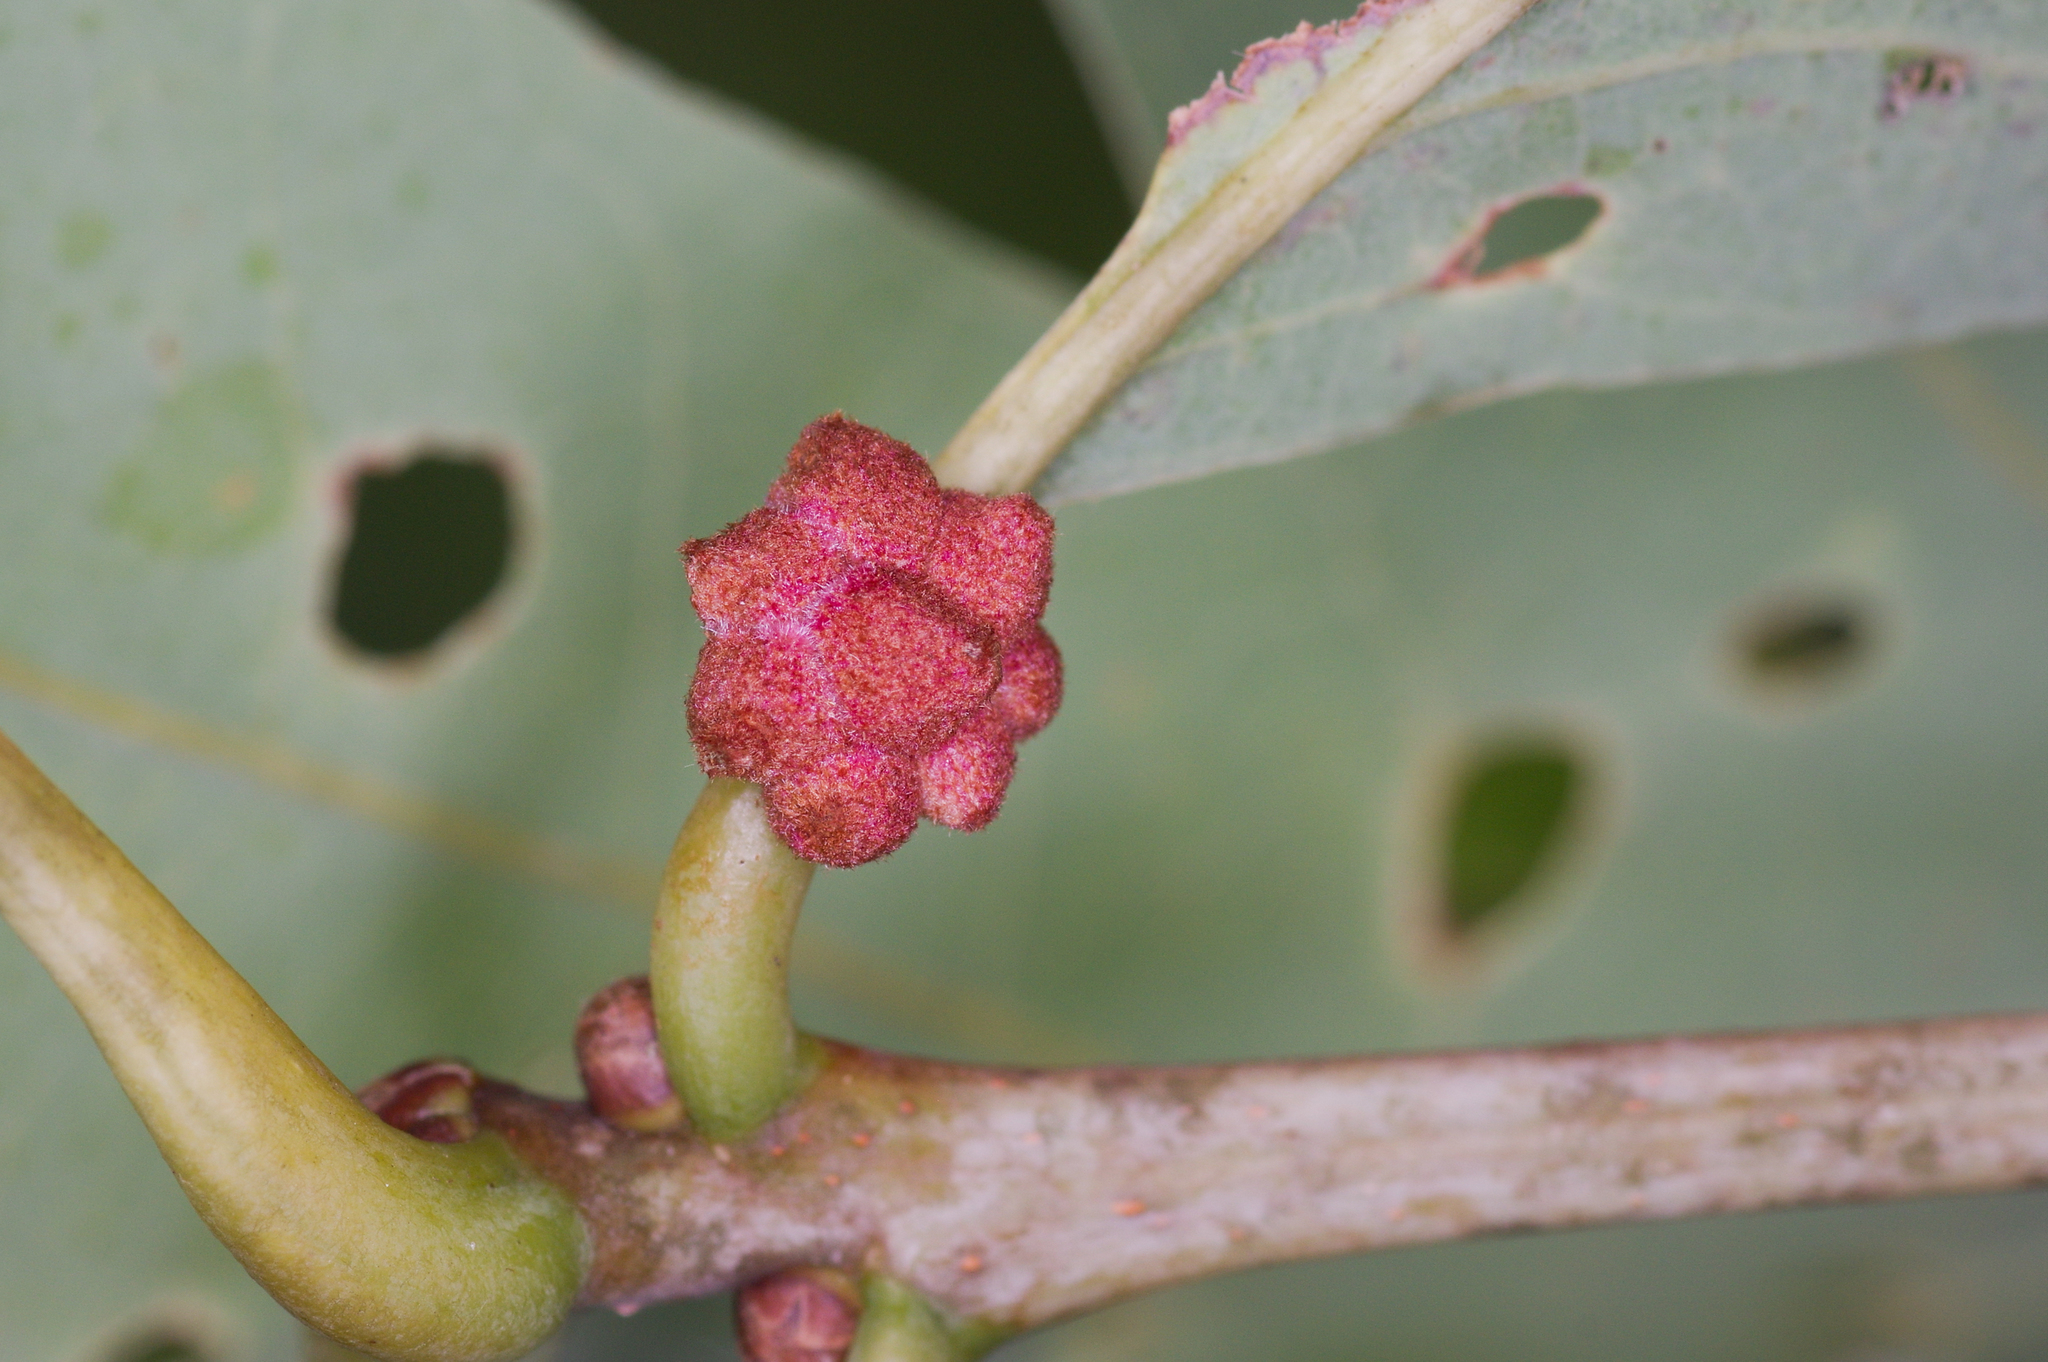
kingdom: Animalia
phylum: Arthropoda
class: Insecta
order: Hymenoptera
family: Cynipidae
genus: Andricus
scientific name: Andricus
